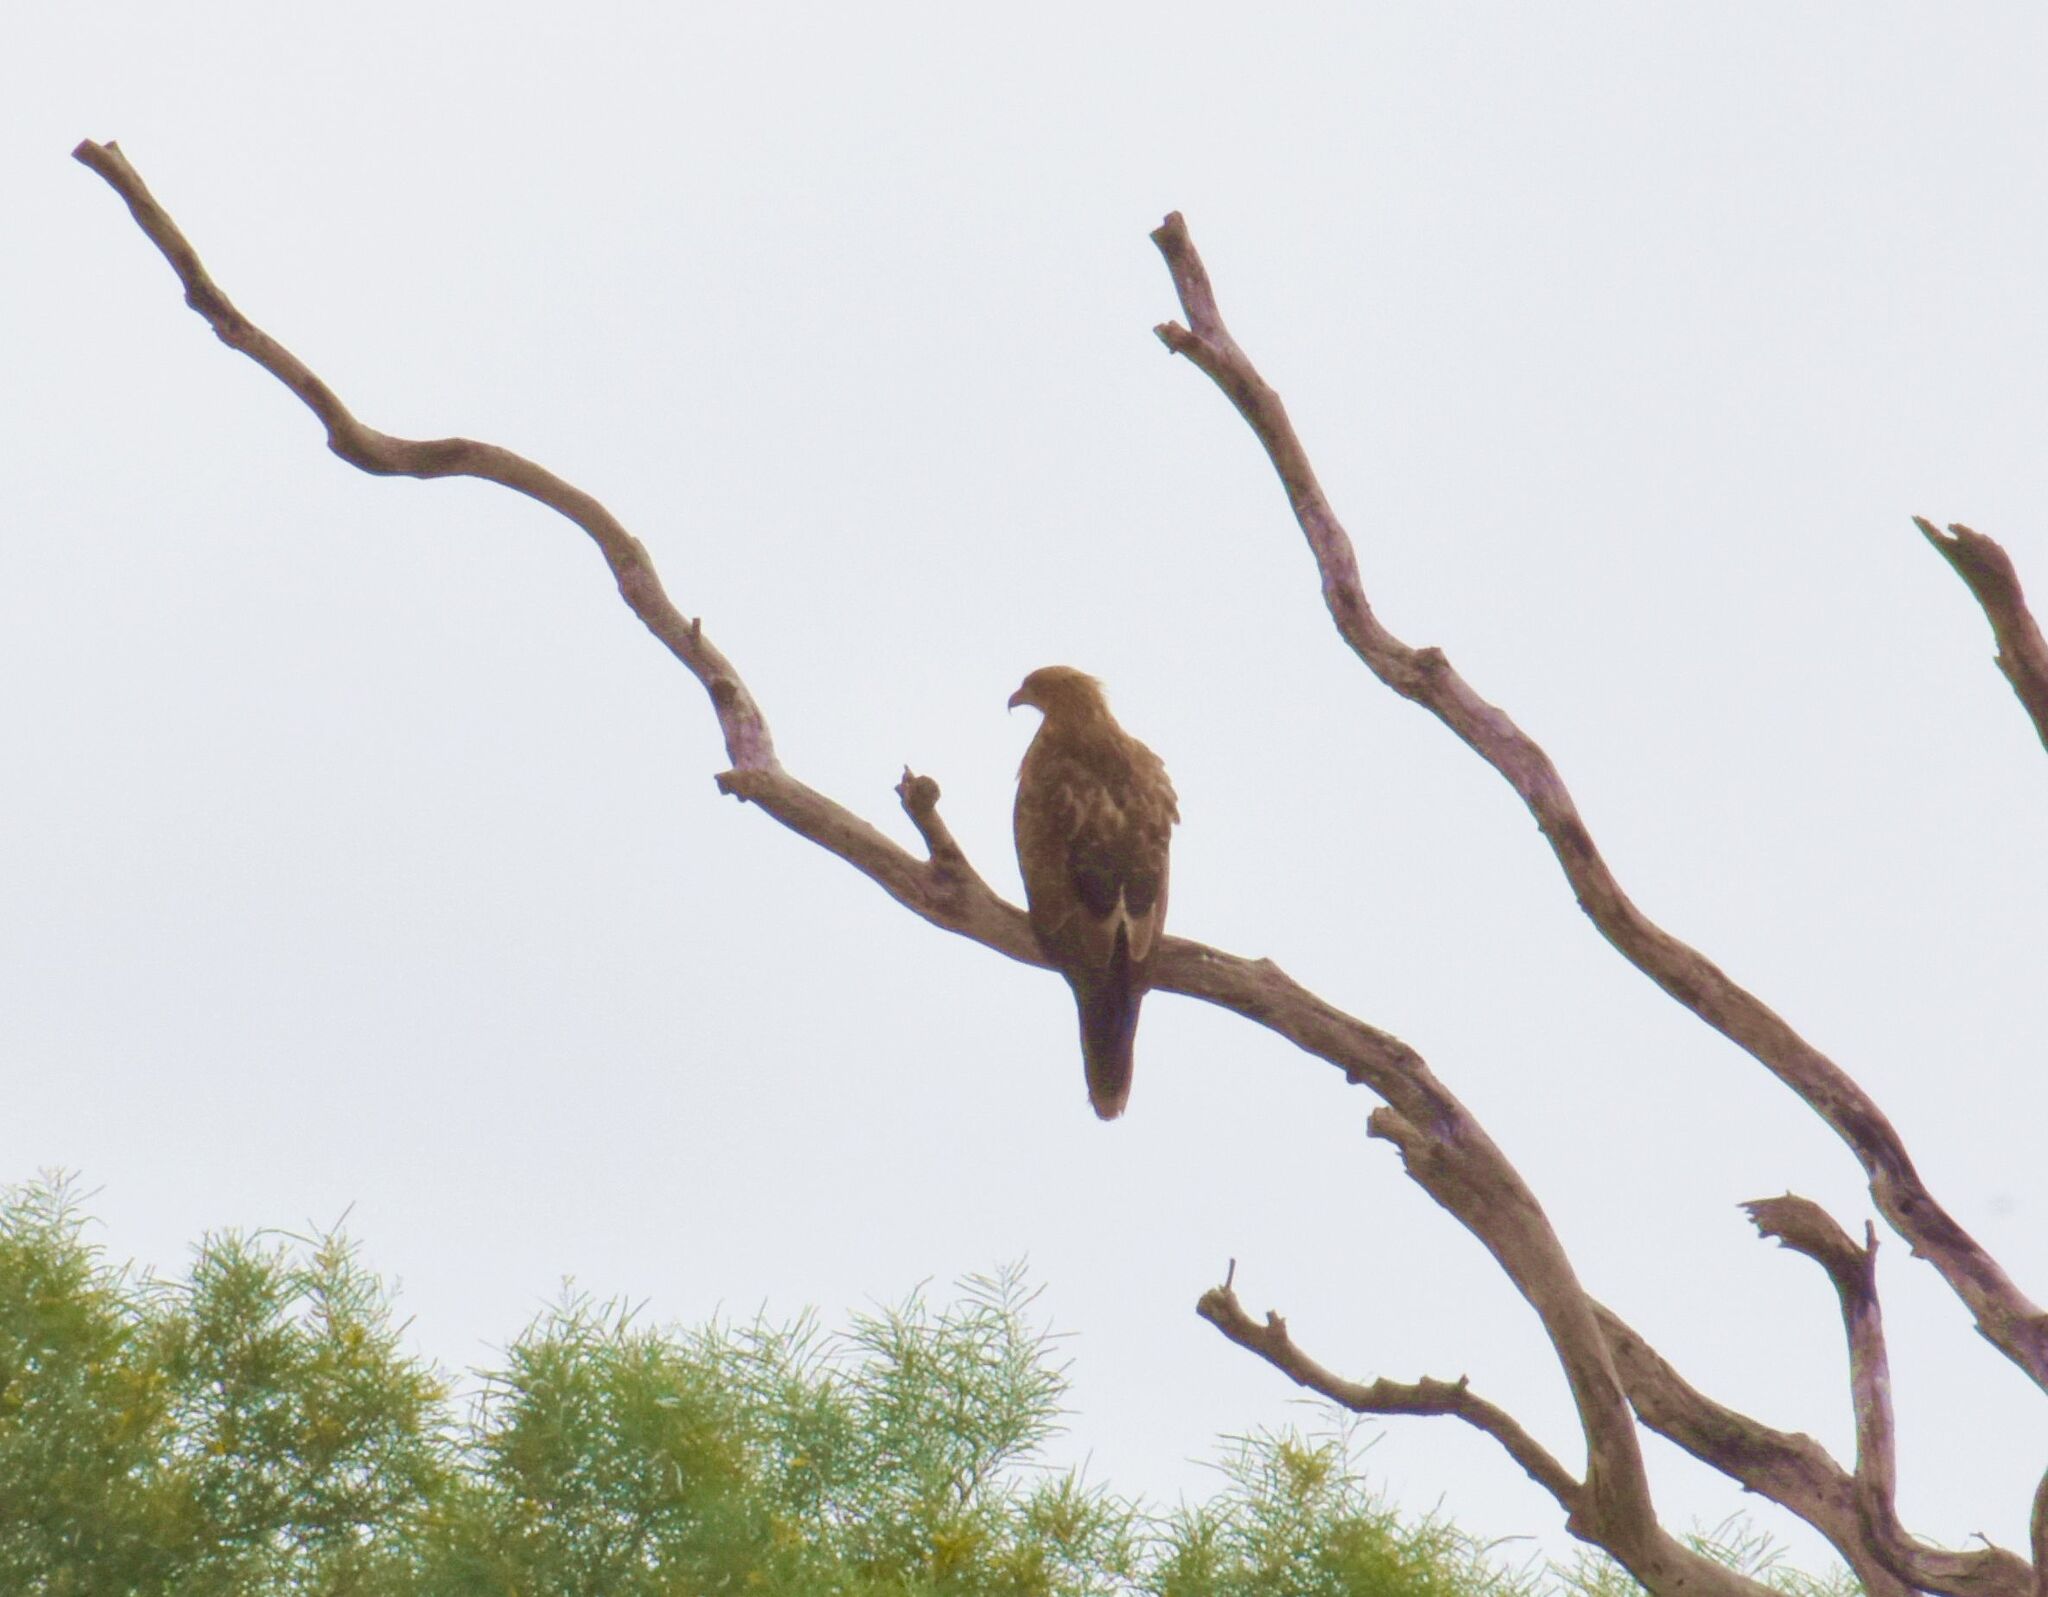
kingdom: Animalia
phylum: Chordata
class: Aves
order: Accipitriformes
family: Accipitridae
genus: Haliastur
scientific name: Haliastur sphenurus
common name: Whistling kite
